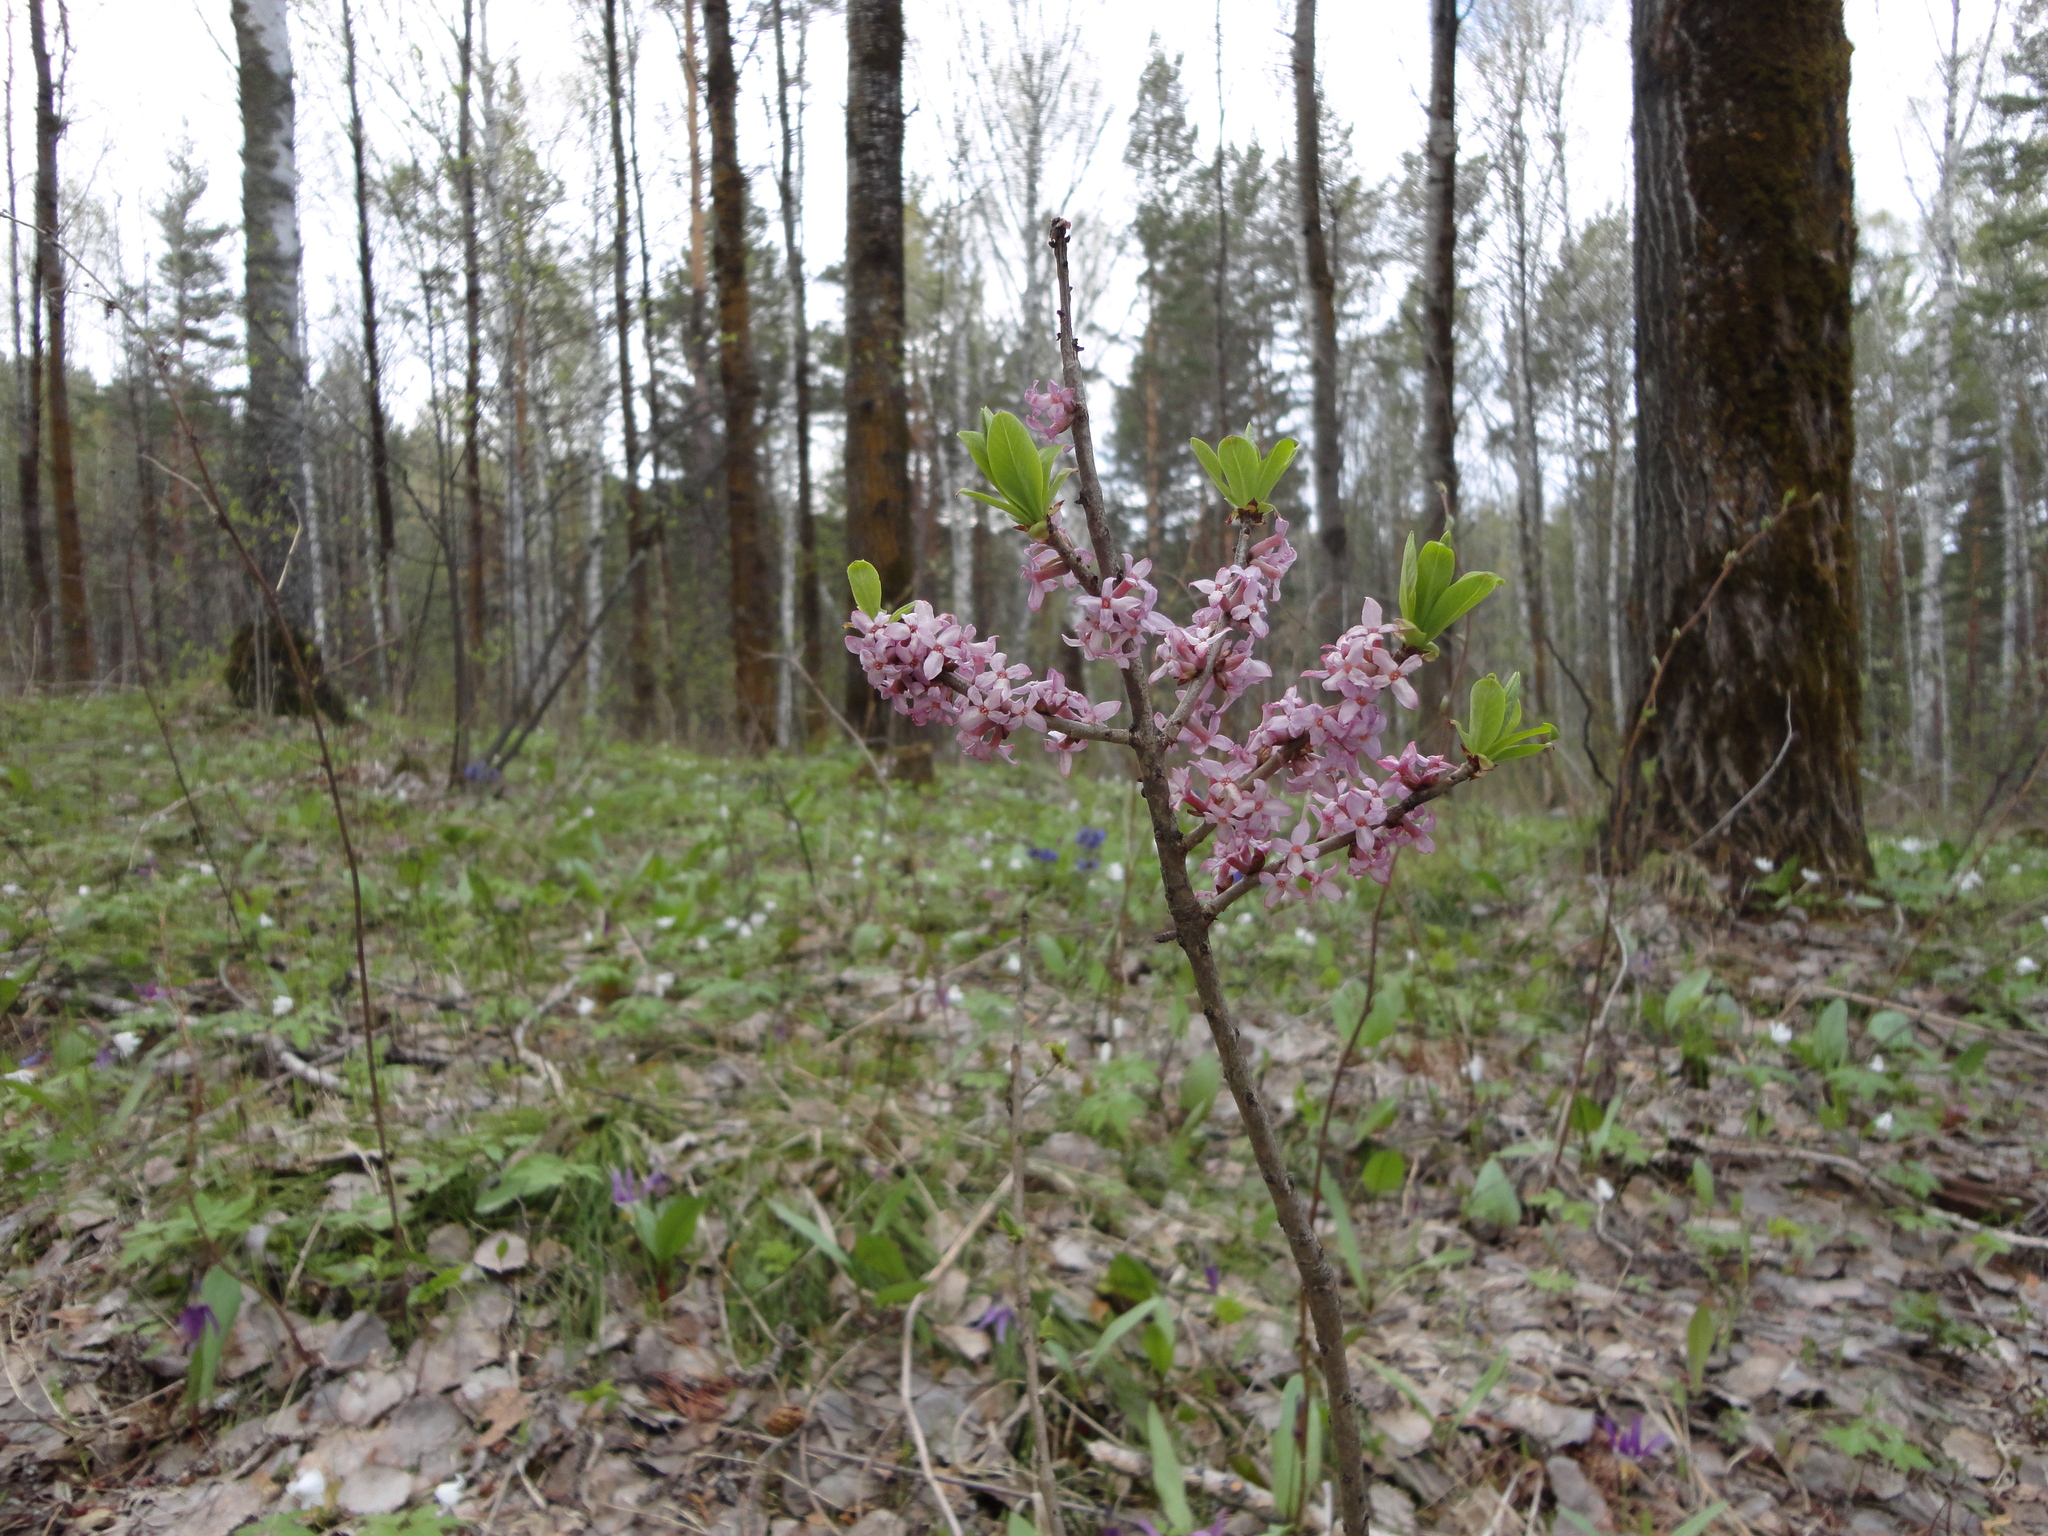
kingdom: Plantae
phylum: Tracheophyta
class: Magnoliopsida
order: Malvales
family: Thymelaeaceae
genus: Daphne
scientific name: Daphne mezereum
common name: Mezereon
